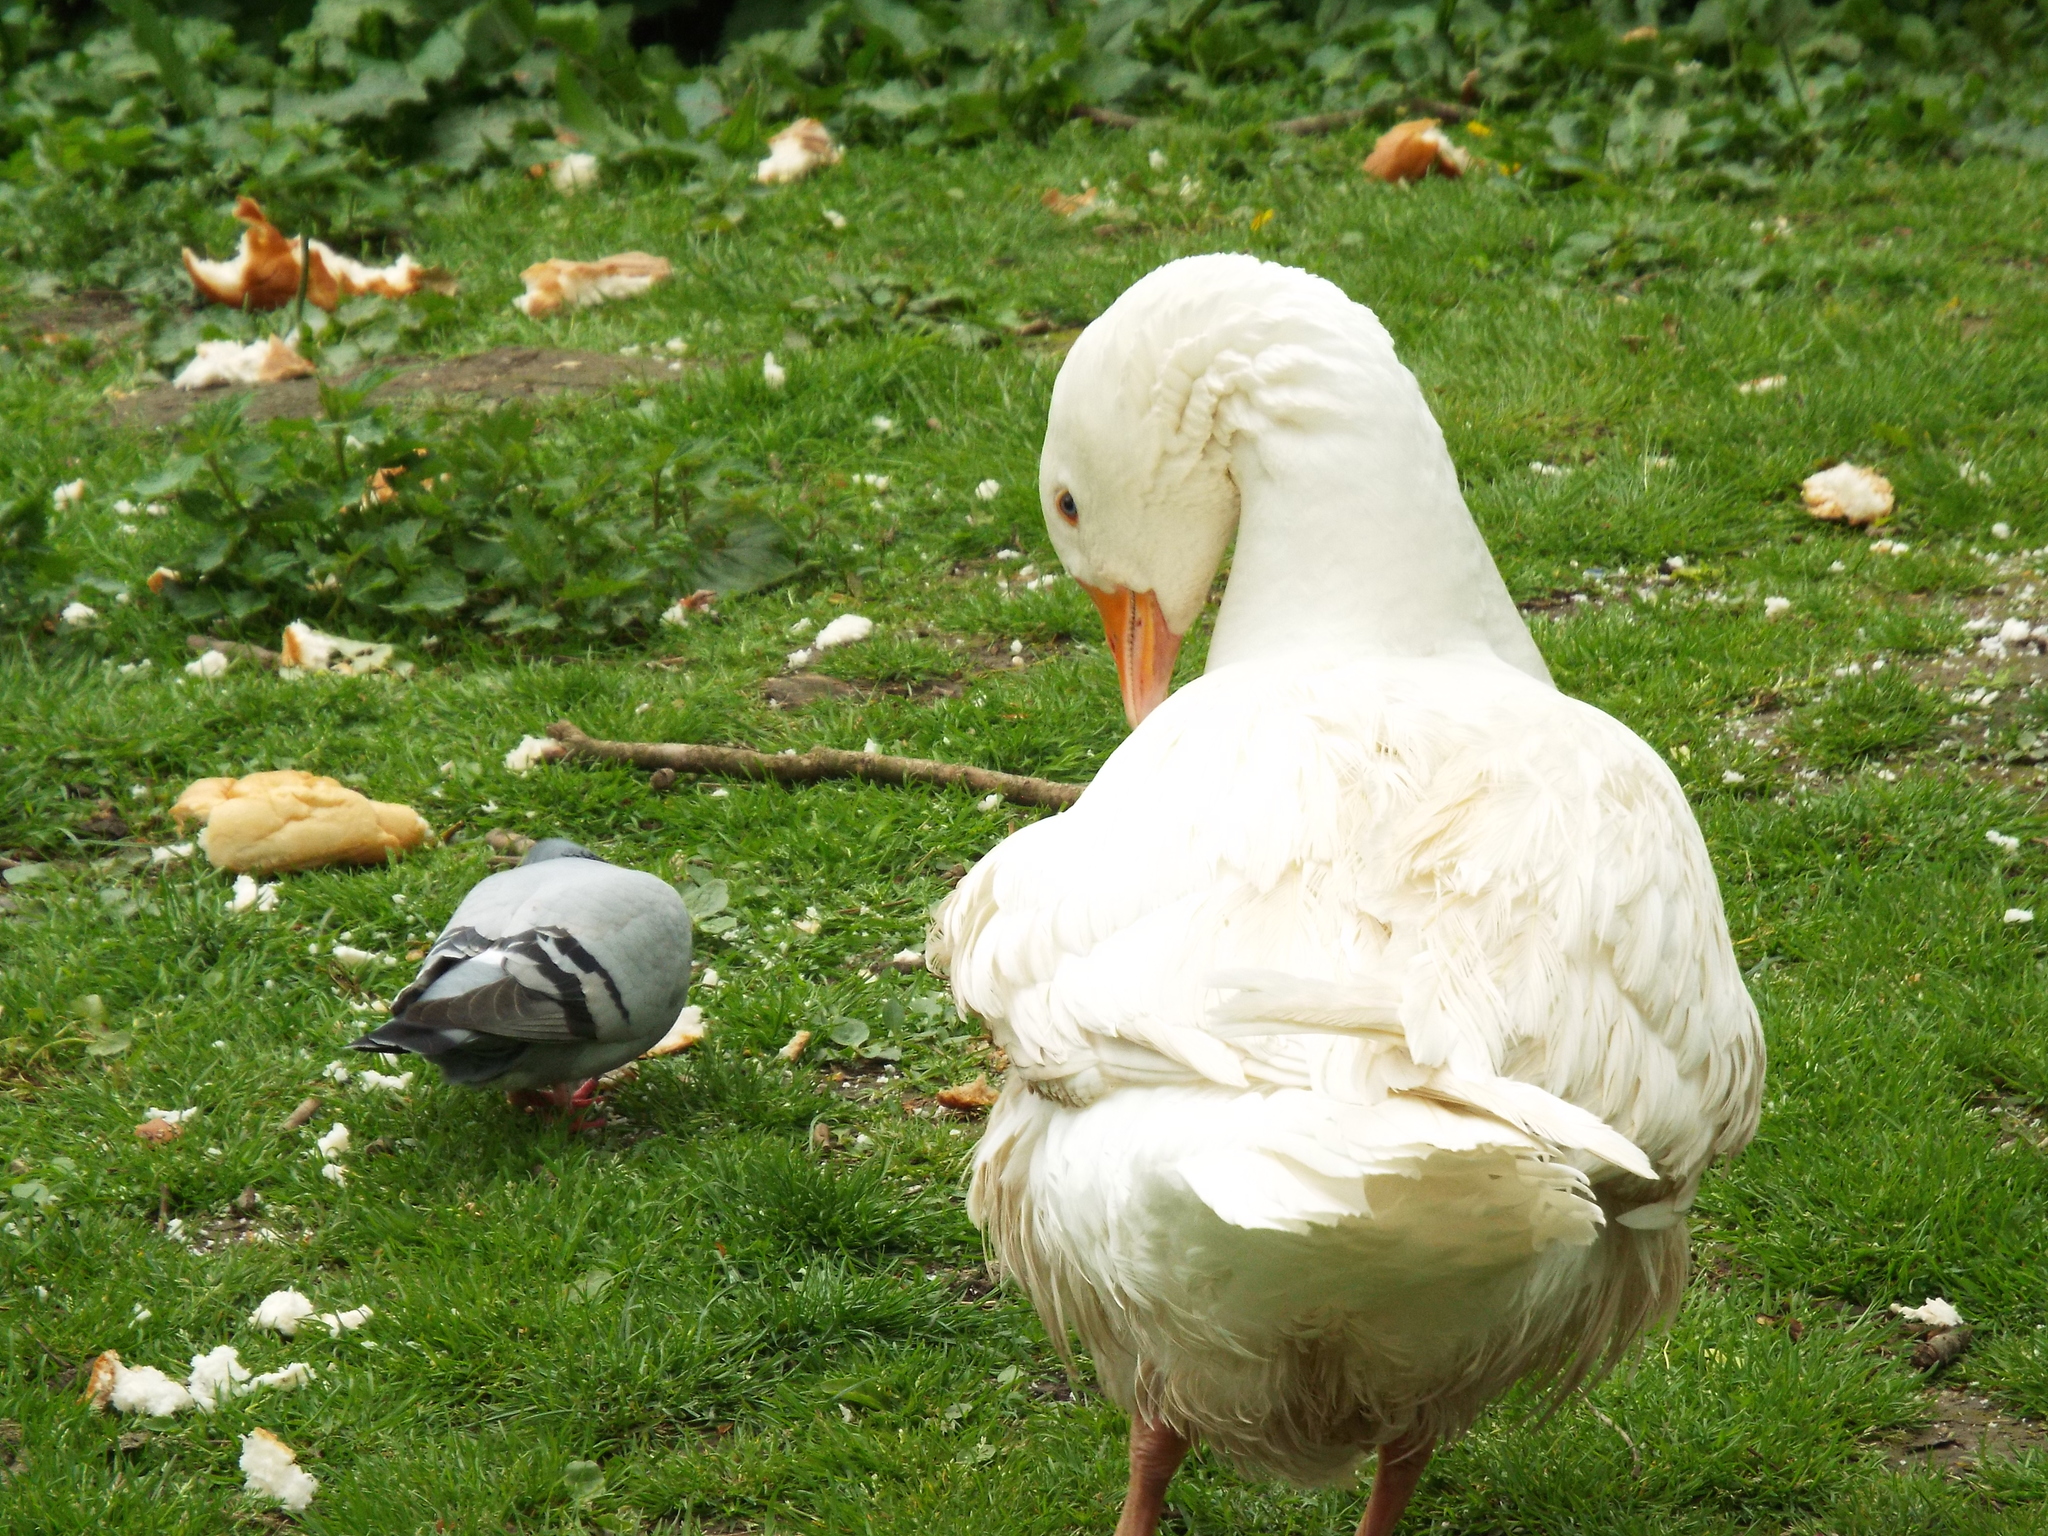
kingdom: Animalia
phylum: Chordata
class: Aves
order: Anseriformes
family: Anatidae
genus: Anser
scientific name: Anser anser
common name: Greylag goose
